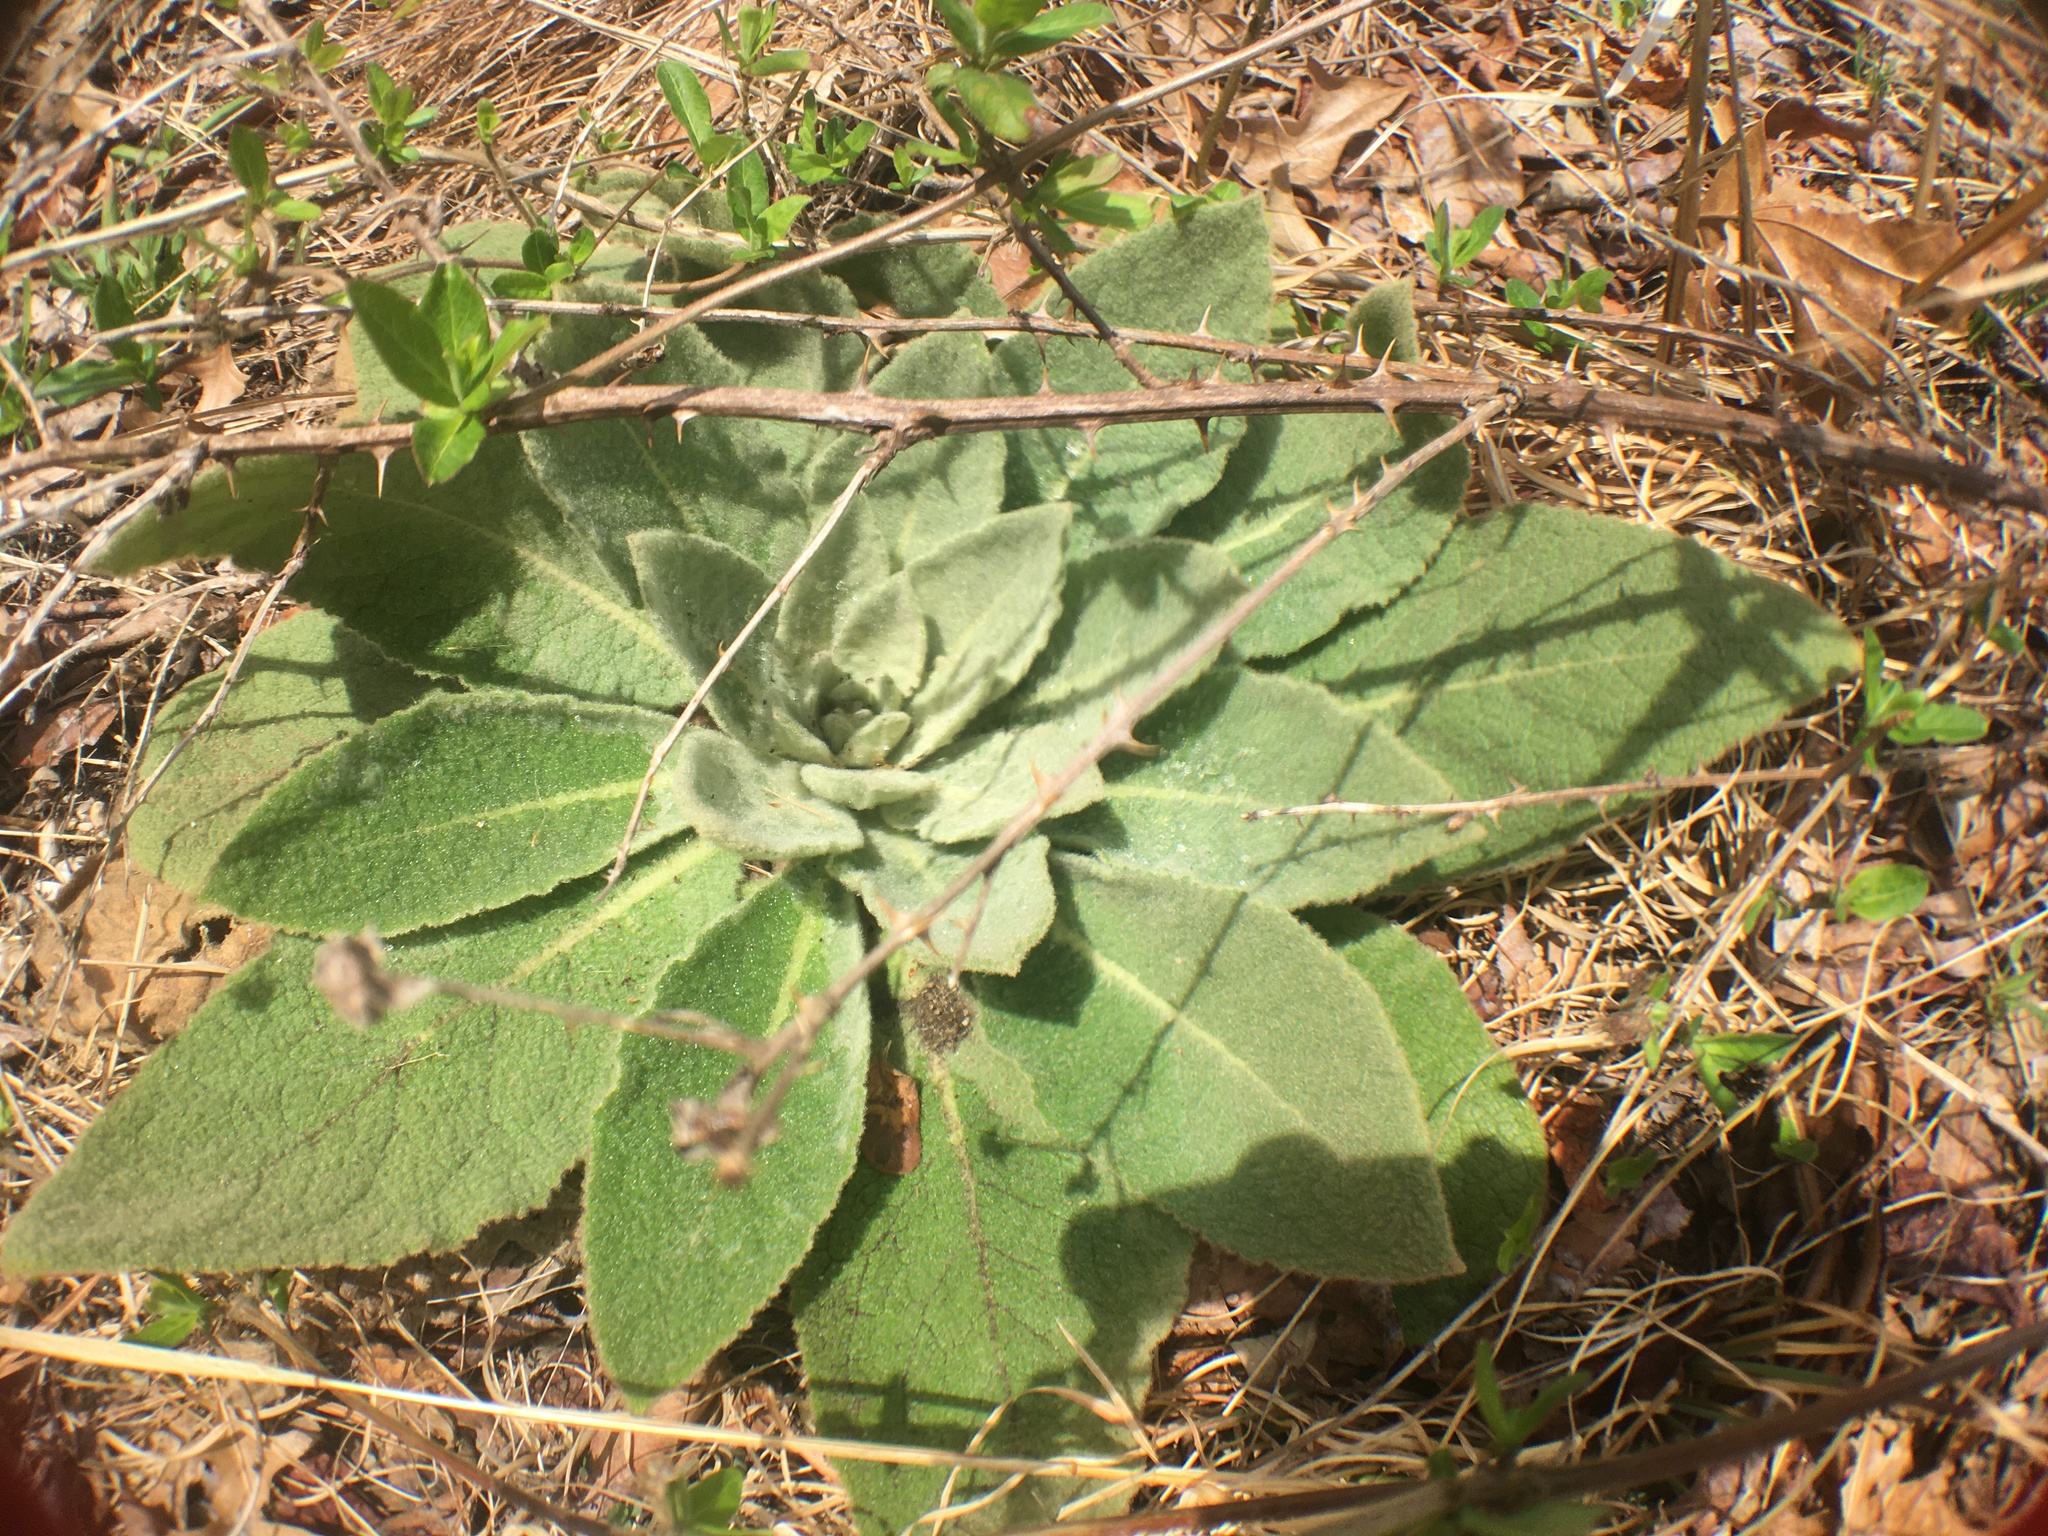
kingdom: Plantae
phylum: Tracheophyta
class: Magnoliopsida
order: Lamiales
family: Scrophulariaceae
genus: Verbascum
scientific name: Verbascum thapsus
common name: Common mullein
